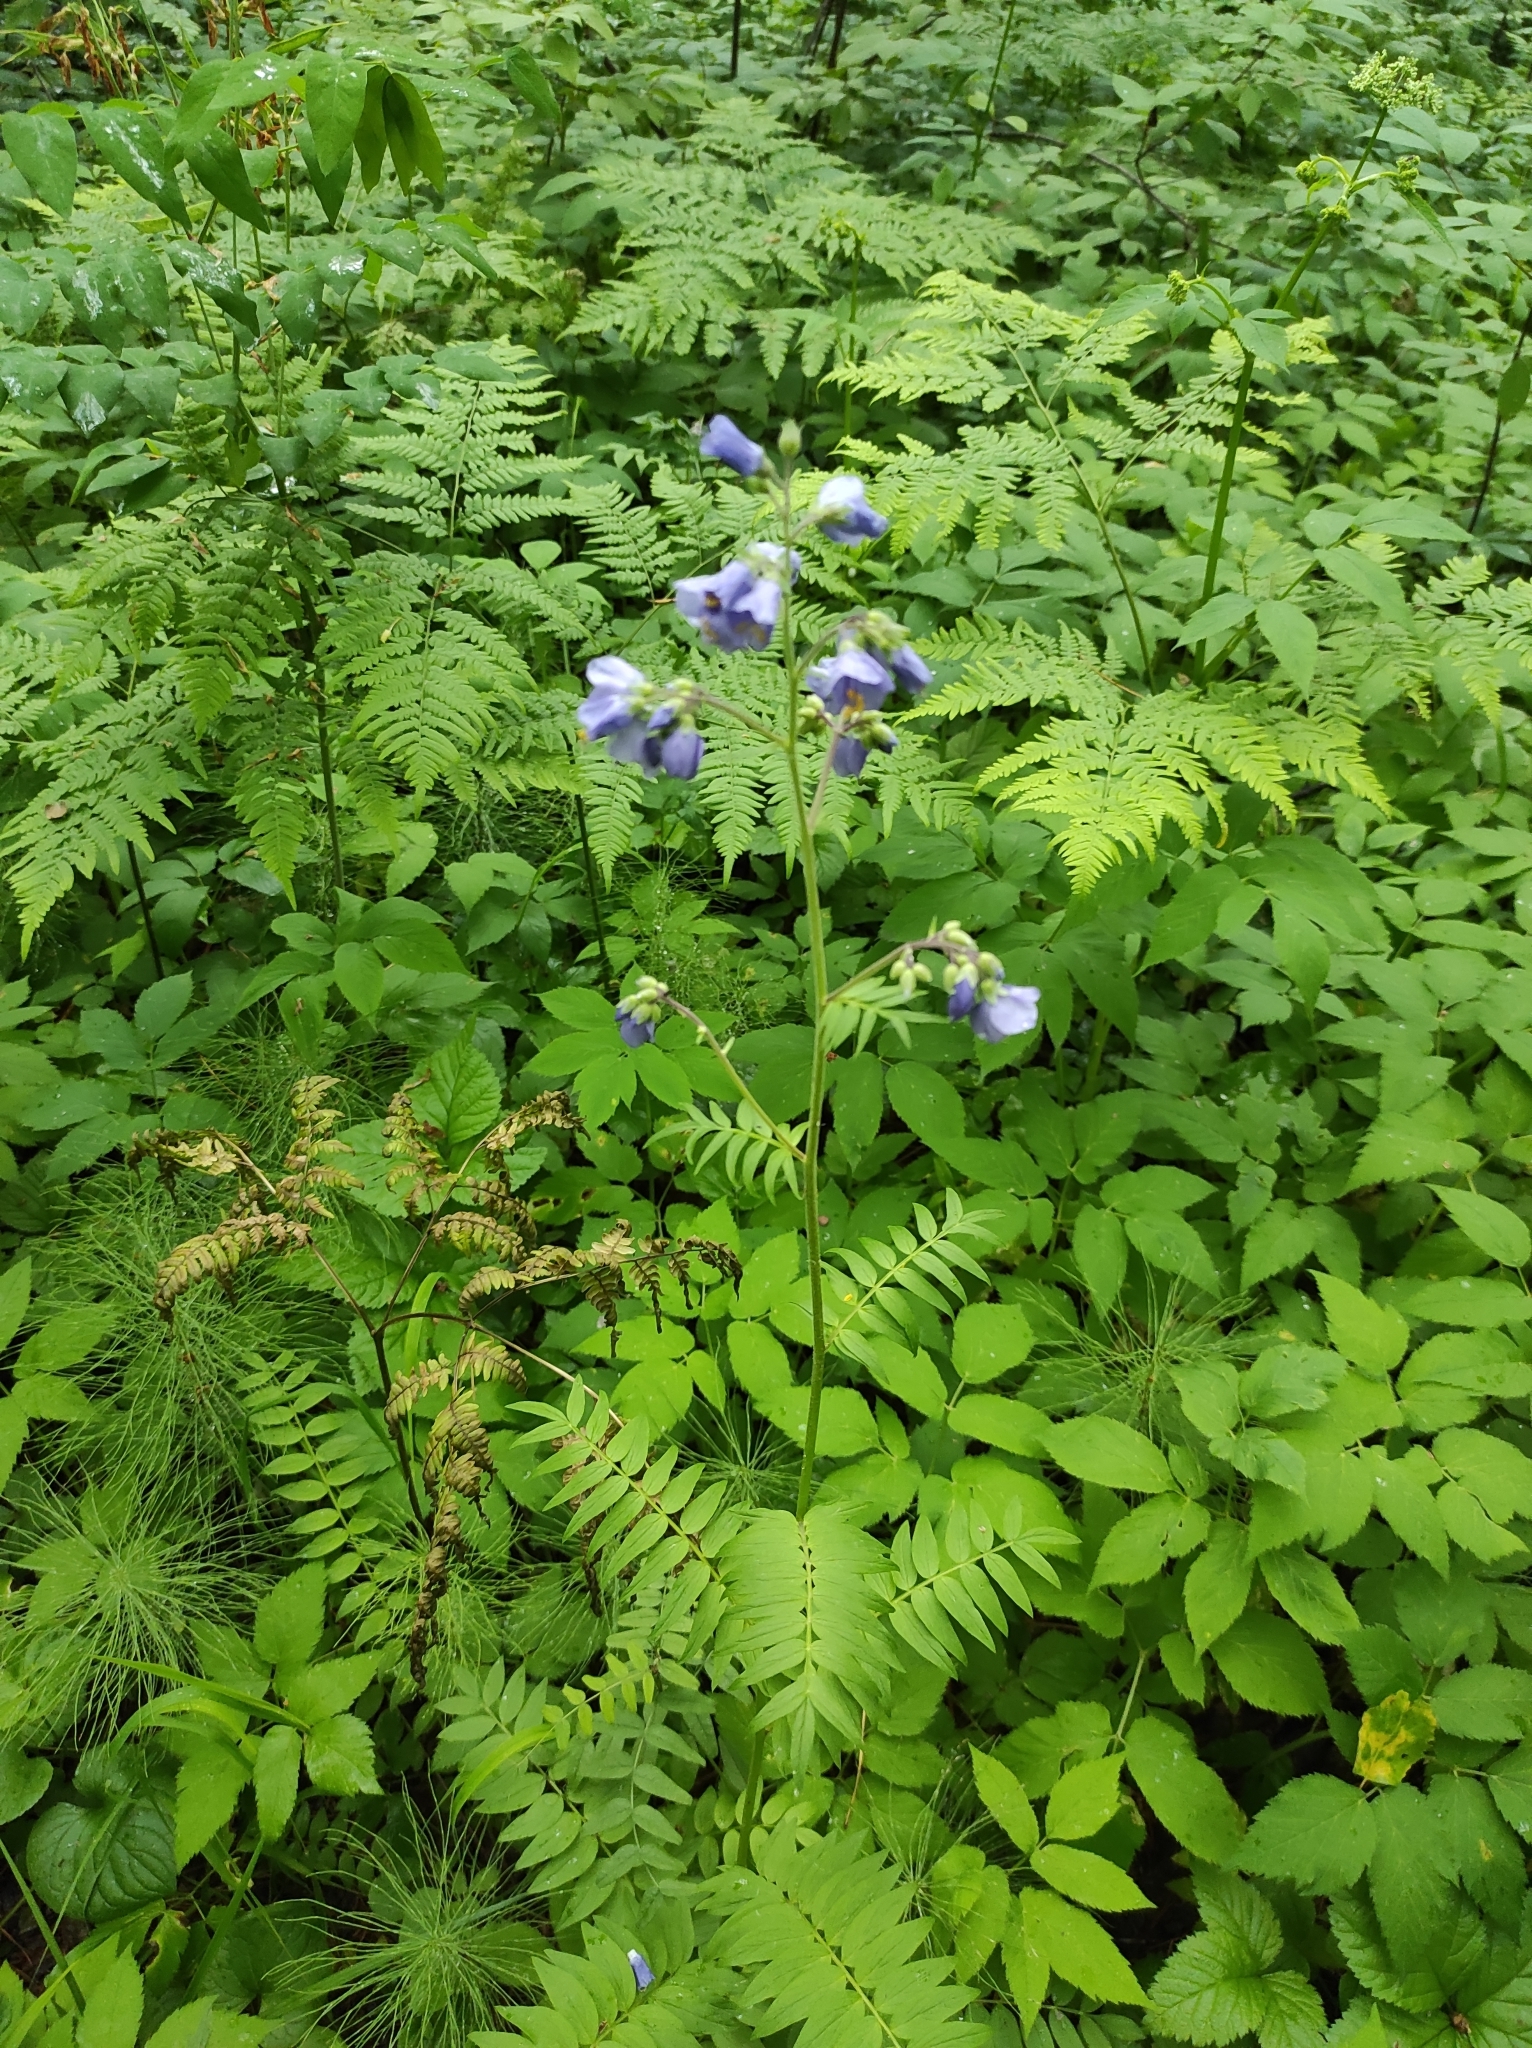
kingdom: Plantae
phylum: Tracheophyta
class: Magnoliopsida
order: Ericales
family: Polemoniaceae
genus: Polemonium
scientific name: Polemonium caeruleum
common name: Jacob's-ladder
